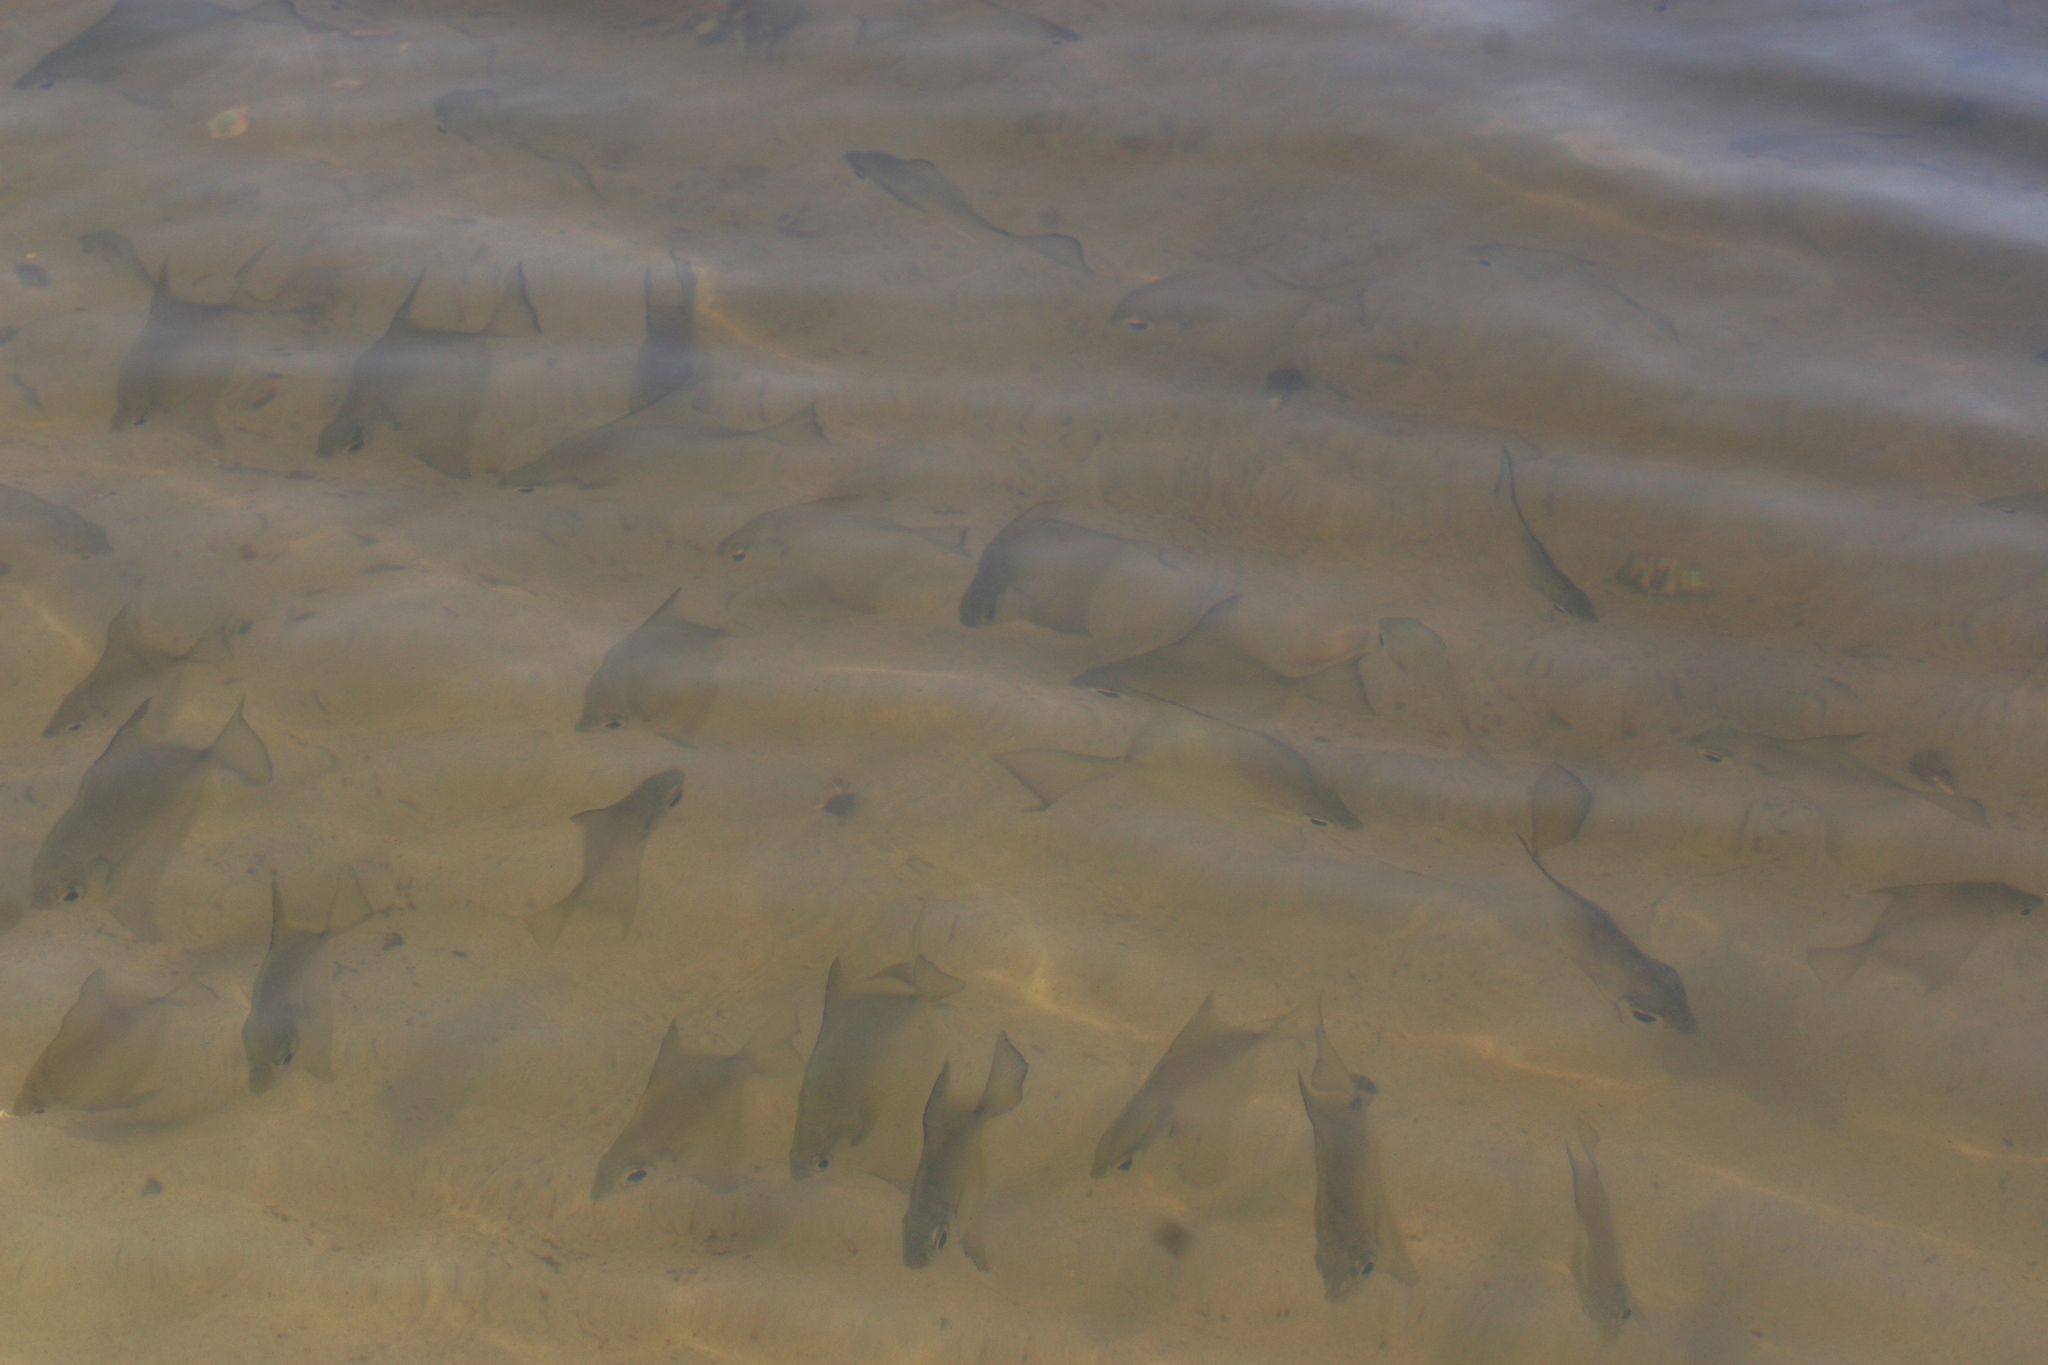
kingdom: Animalia
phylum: Chordata
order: Perciformes
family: Monodactylidae
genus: Monodactylus
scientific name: Monodactylus sebae
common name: African moony
